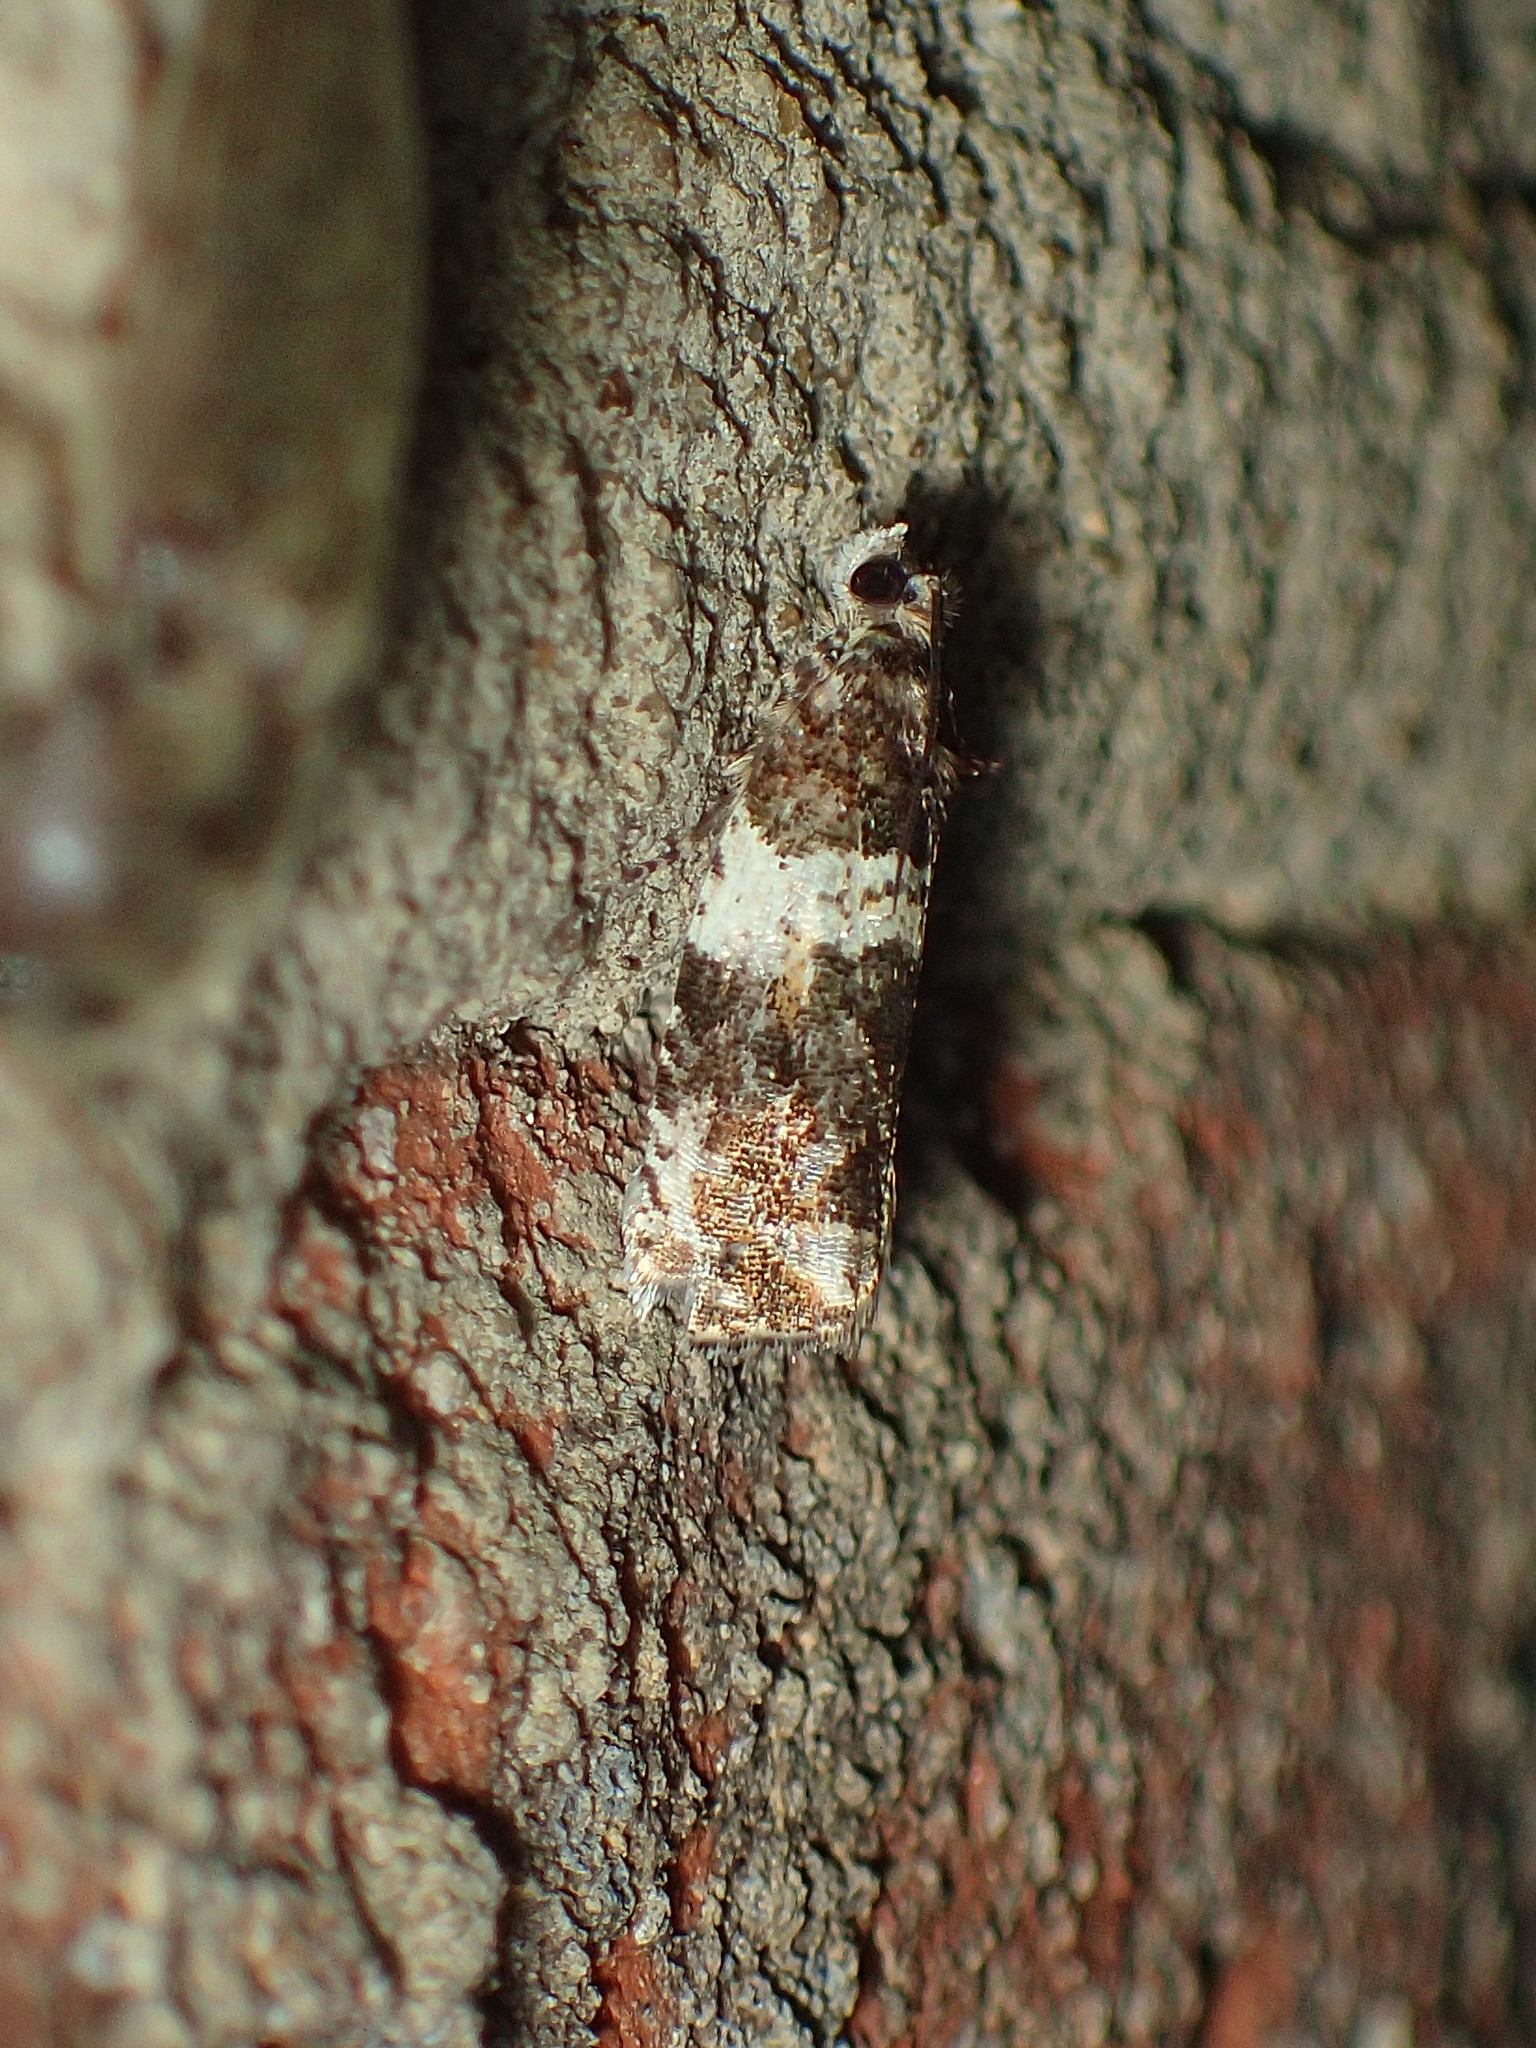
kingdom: Animalia
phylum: Arthropoda
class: Insecta
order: Lepidoptera
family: Tortricidae
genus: Olethreutes
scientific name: Olethreutes fasciatana
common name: Banded olethreutes moth
